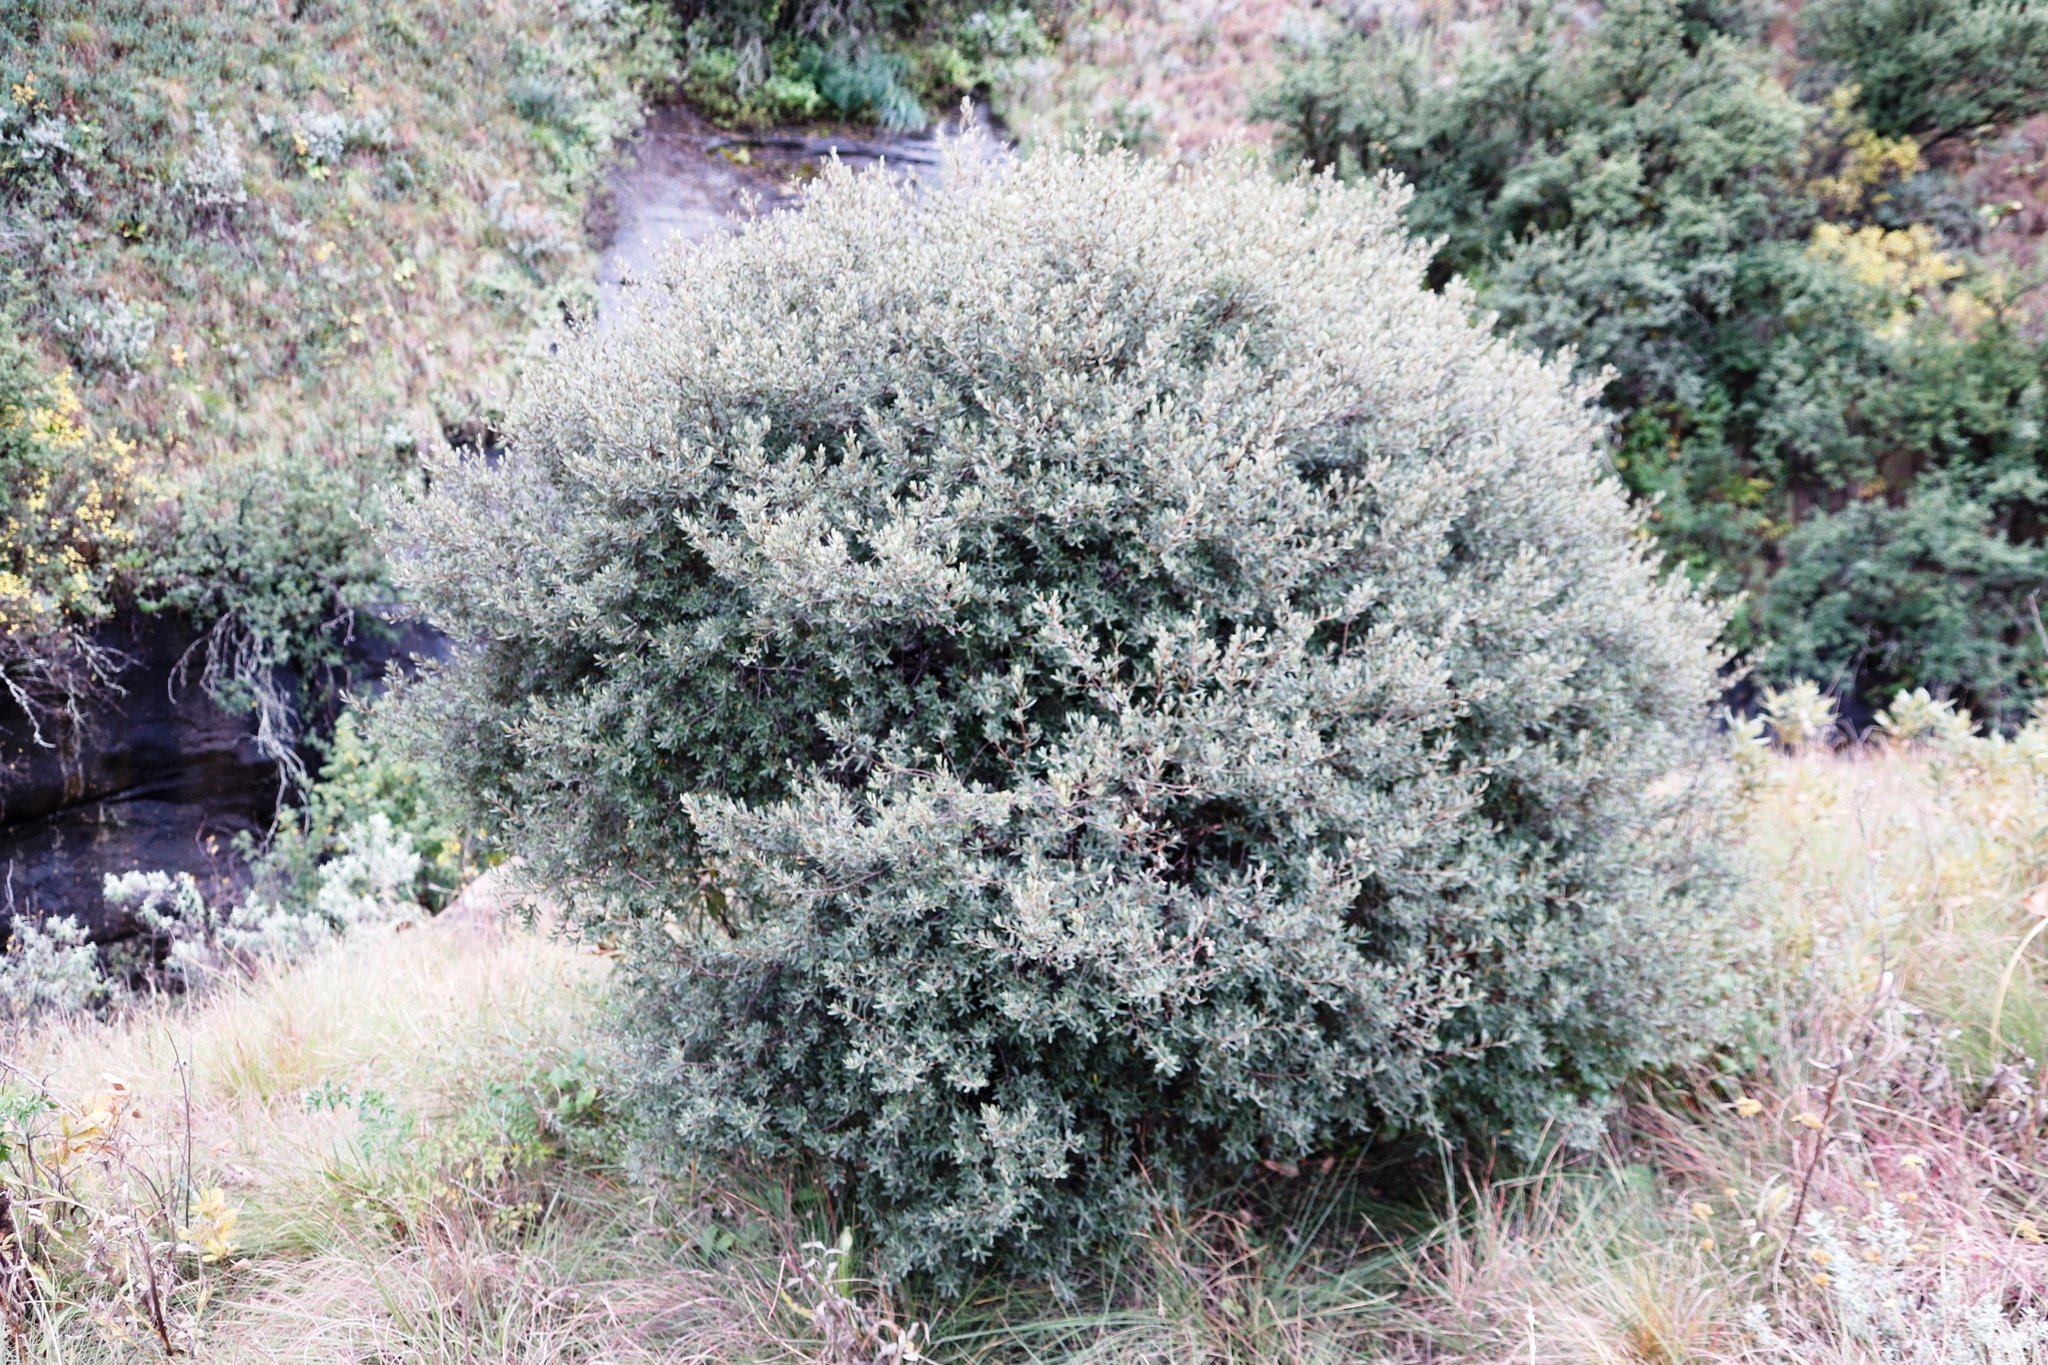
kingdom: Plantae
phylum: Tracheophyta
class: Magnoliopsida
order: Ericales
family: Ebenaceae
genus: Diospyros
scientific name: Diospyros pubescens
